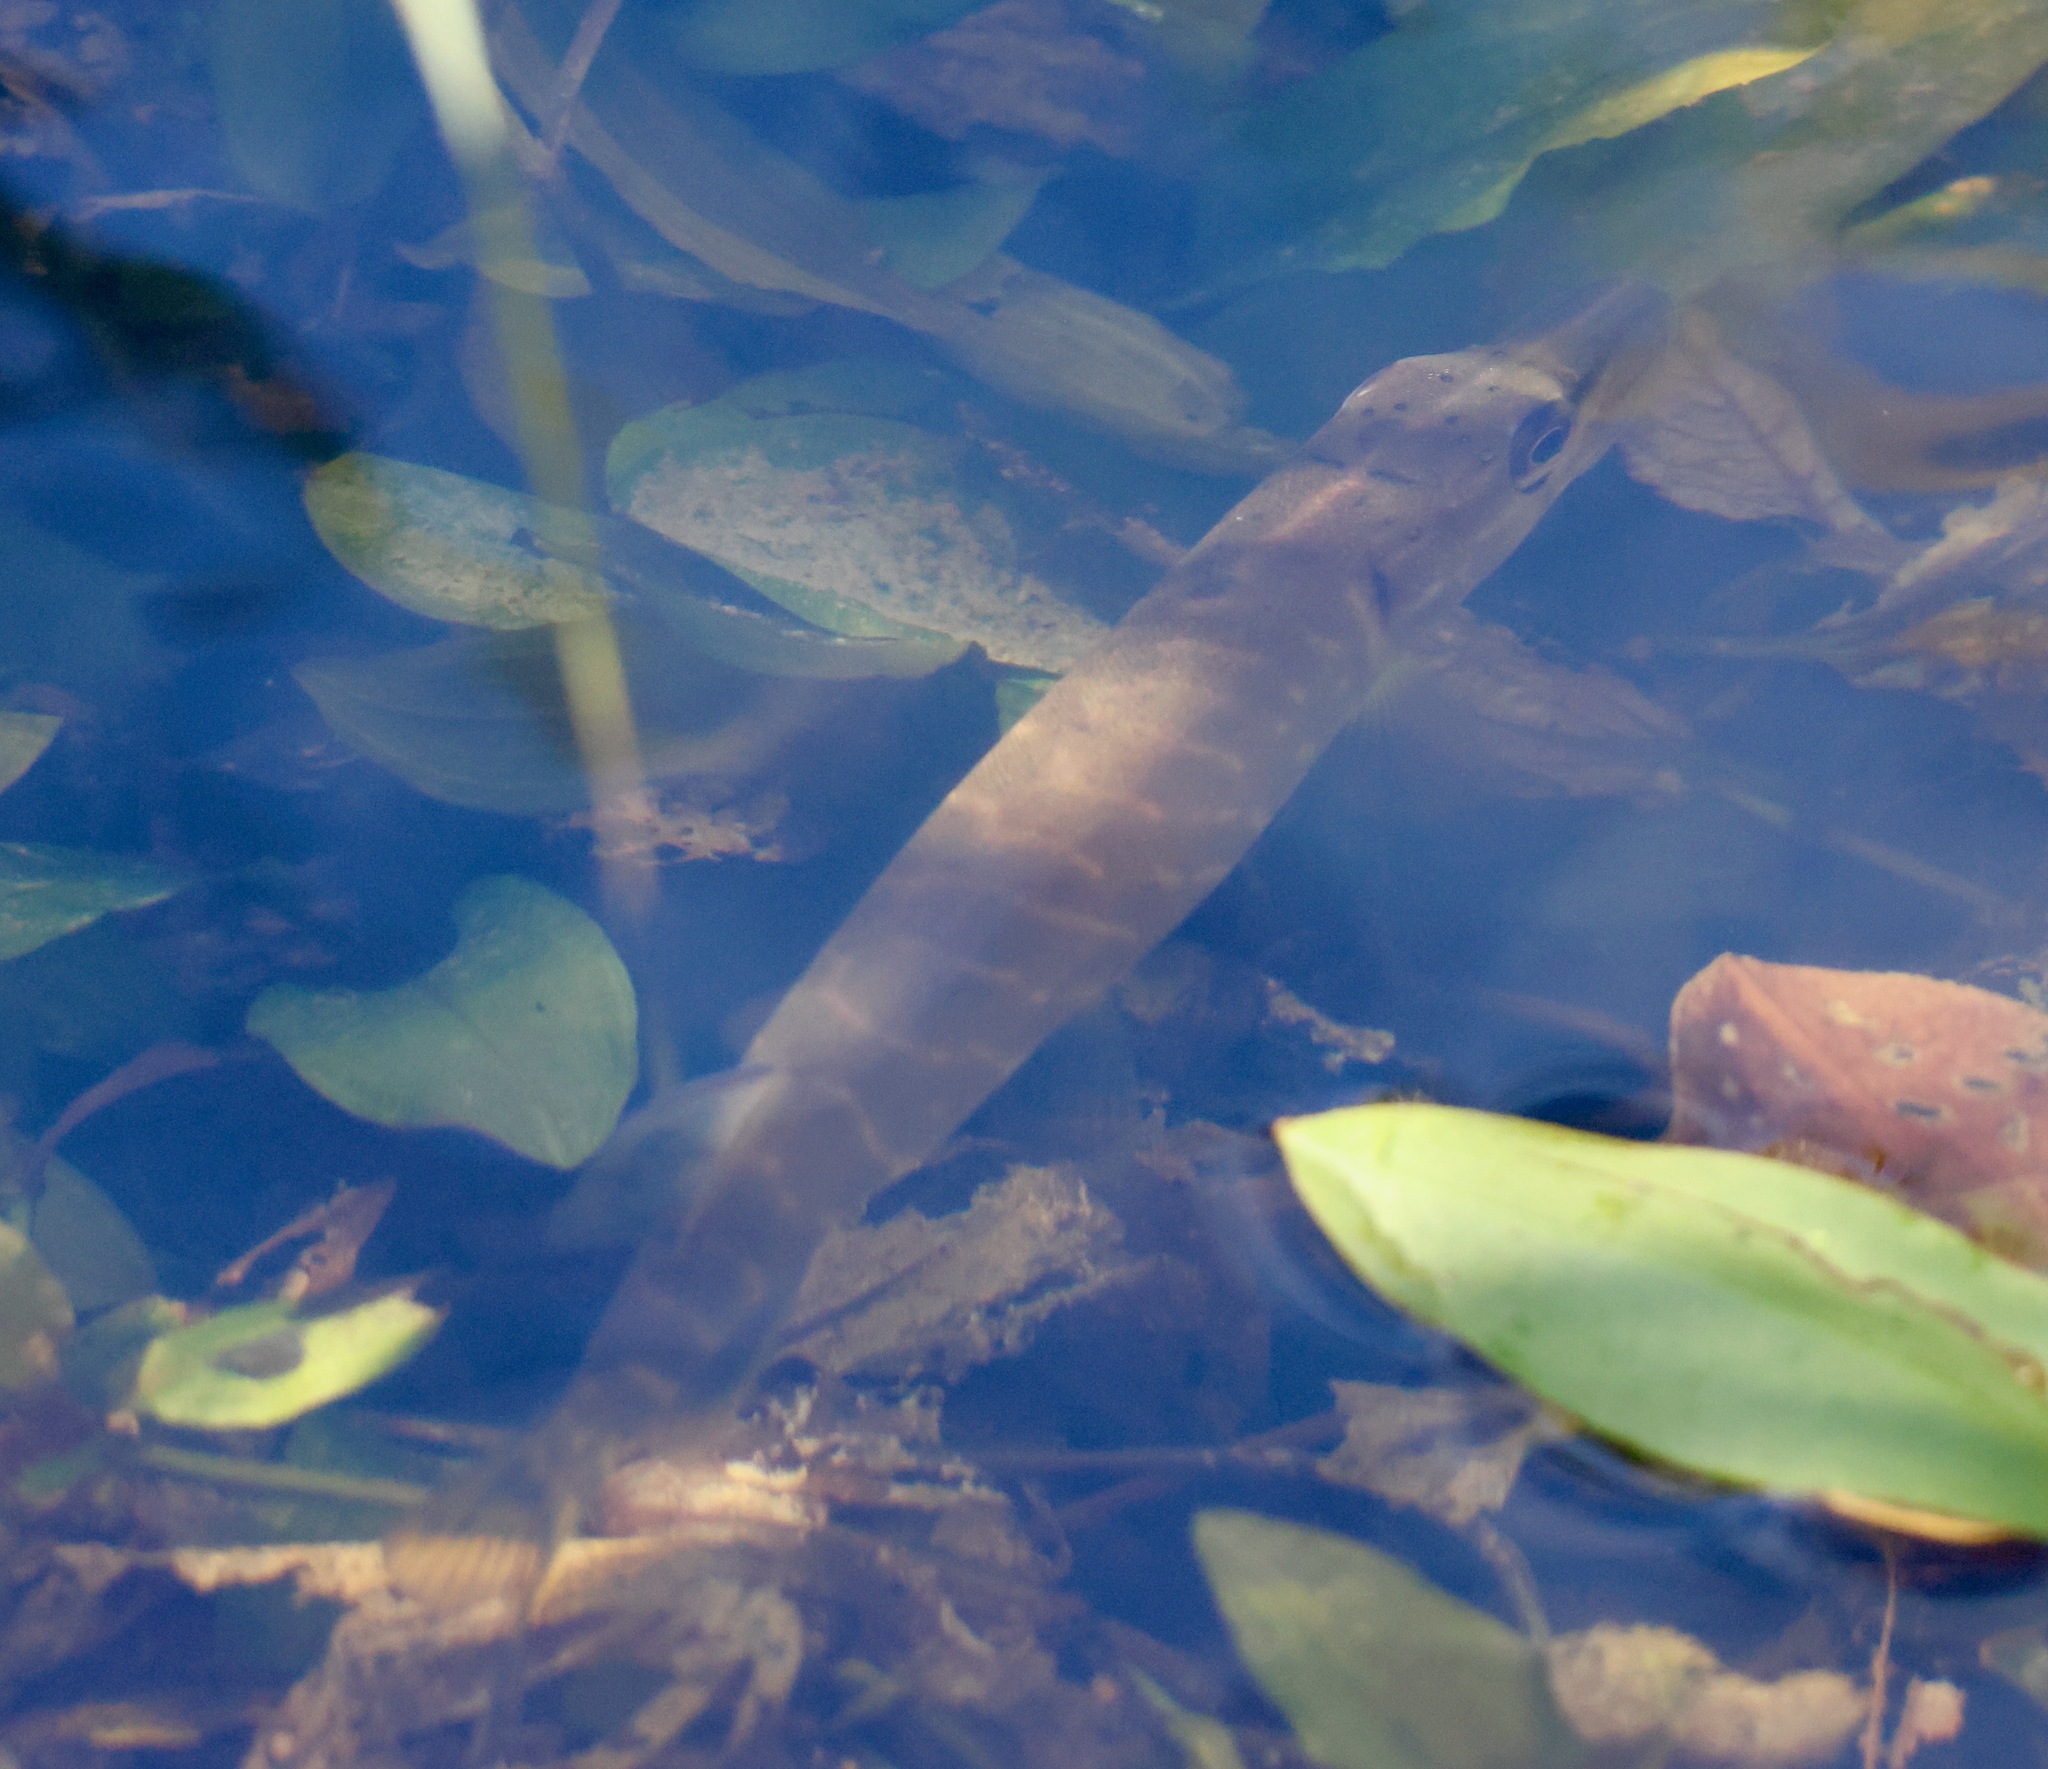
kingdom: Animalia
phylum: Chordata
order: Esociformes
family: Esocidae
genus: Esox
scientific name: Esox lucius
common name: Northern pike
